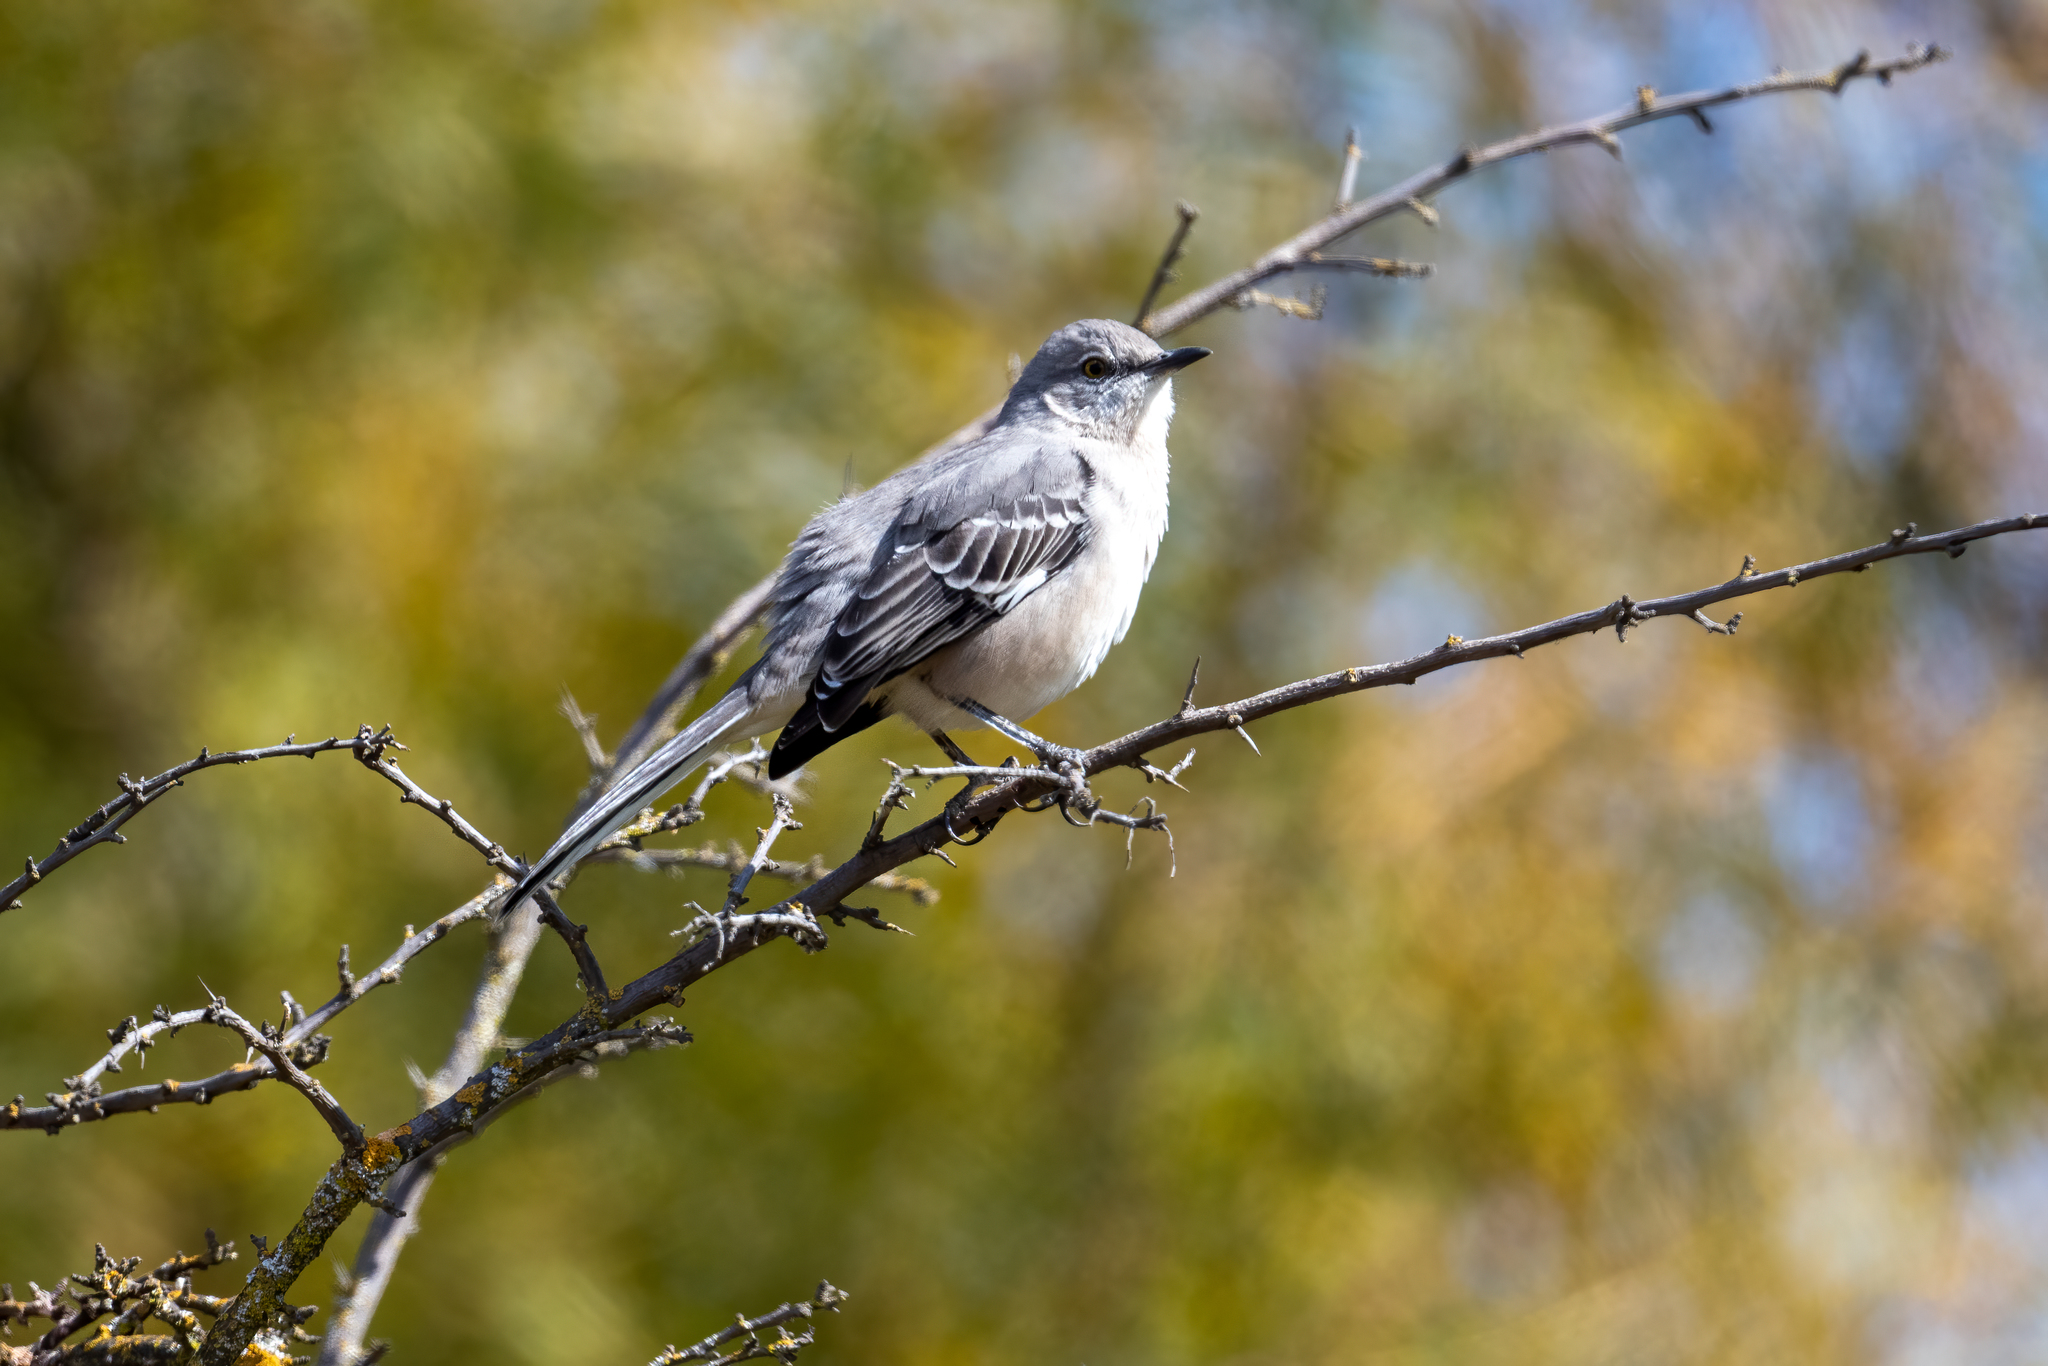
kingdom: Animalia
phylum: Chordata
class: Aves
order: Passeriformes
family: Mimidae
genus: Mimus
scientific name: Mimus polyglottos
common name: Northern mockingbird
